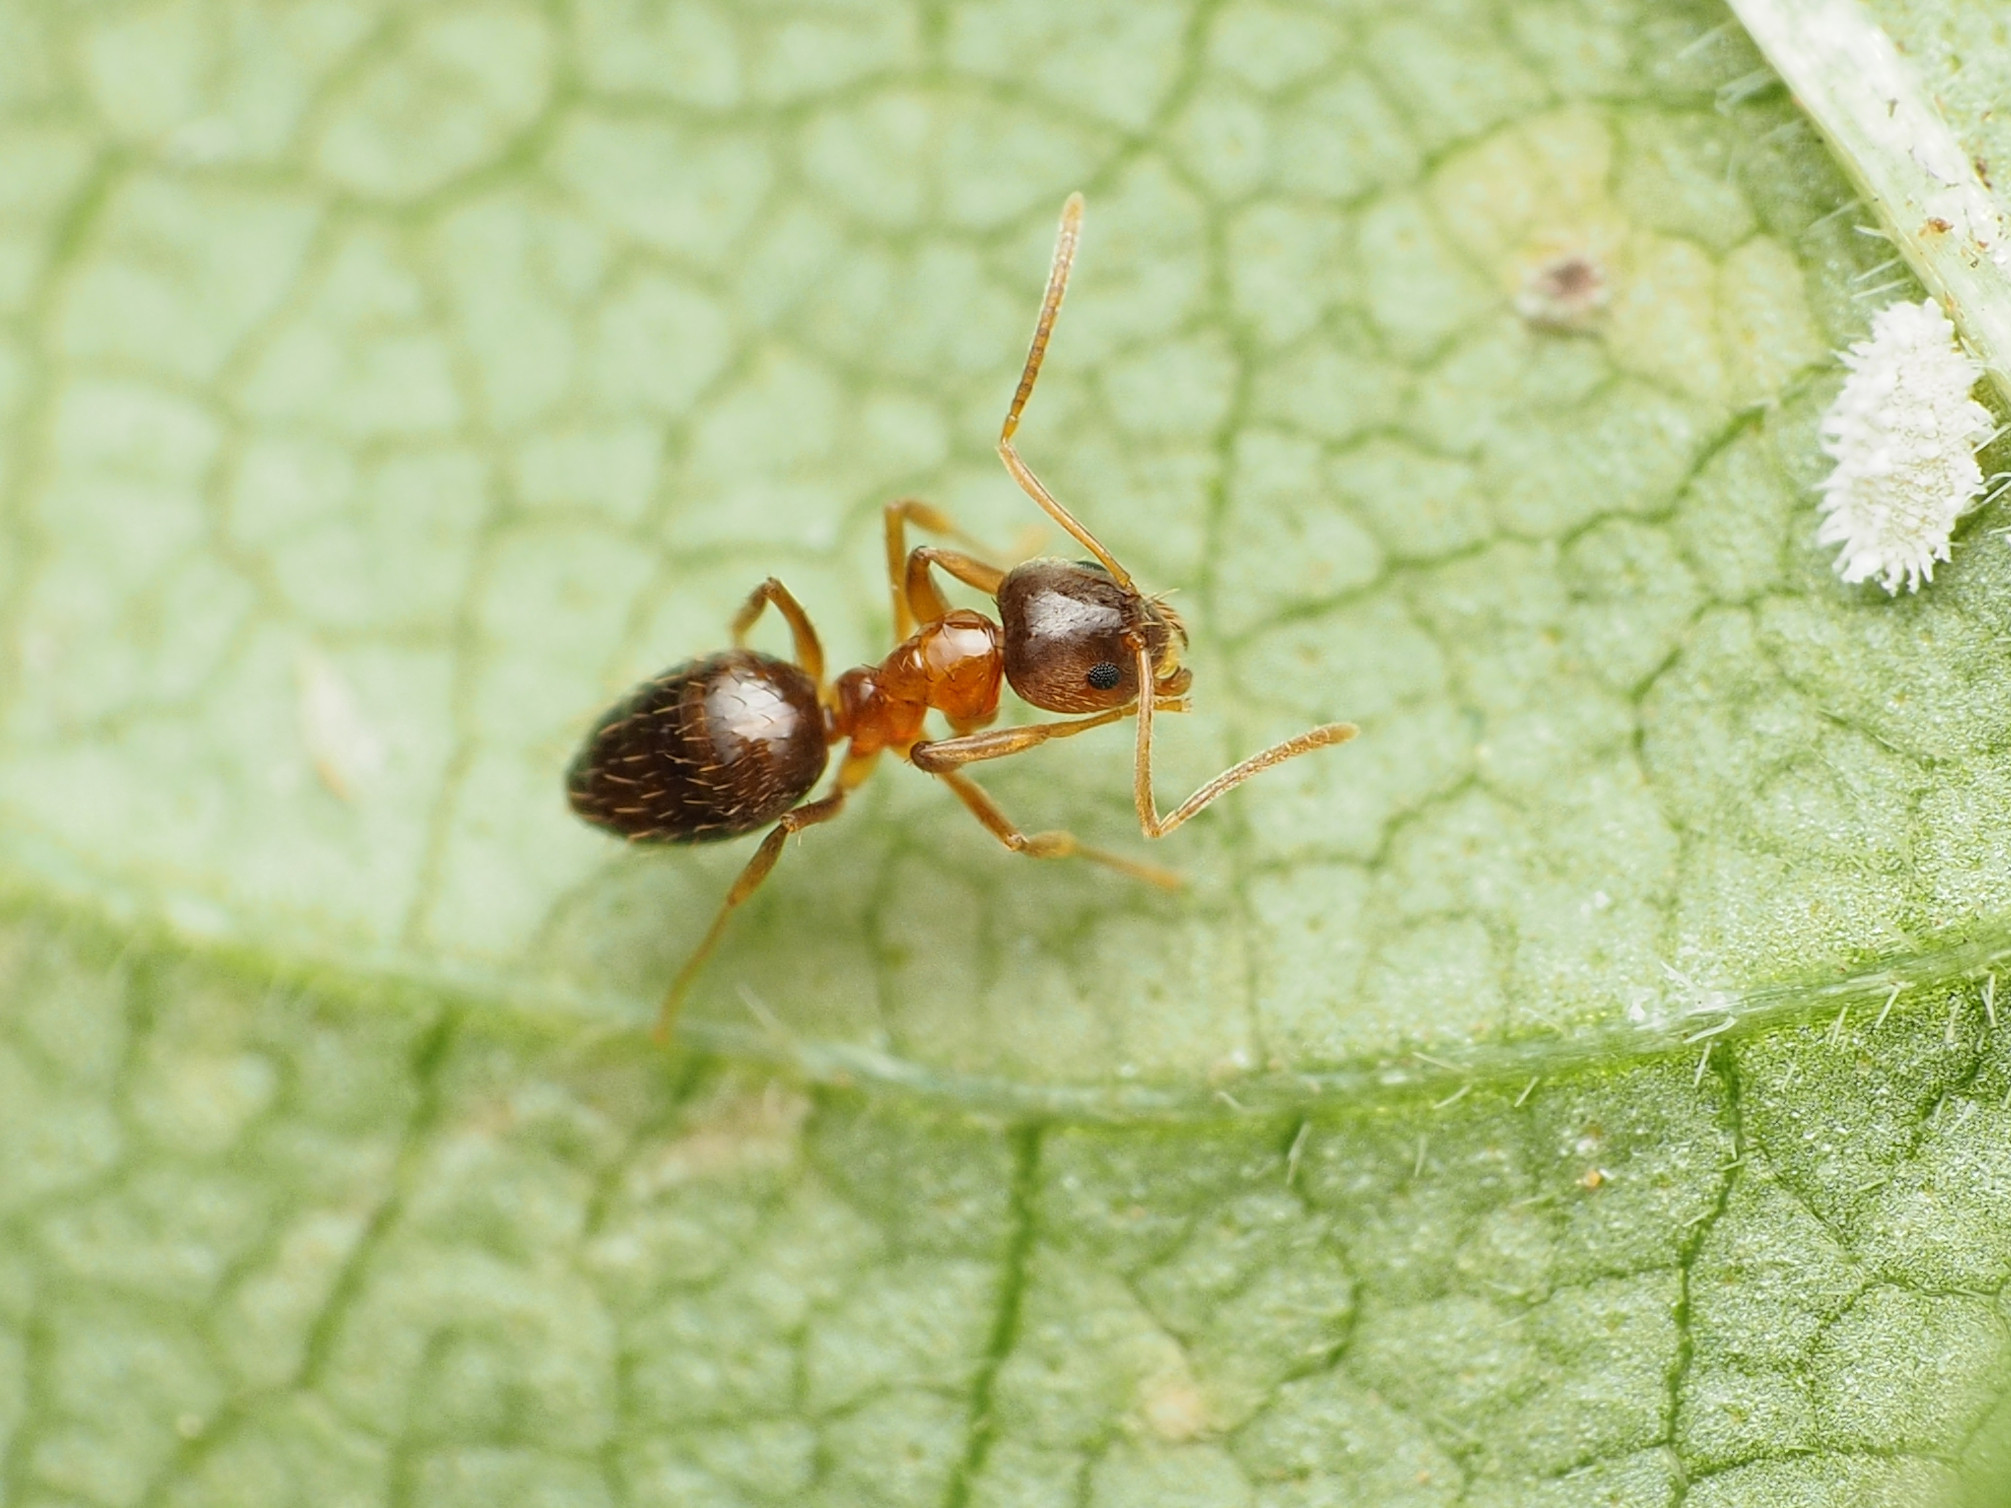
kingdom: Animalia
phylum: Arthropoda
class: Insecta
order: Hymenoptera
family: Formicidae
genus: Paratrechina
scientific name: Paratrechina flavipes
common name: Eastern asian formicine ant
